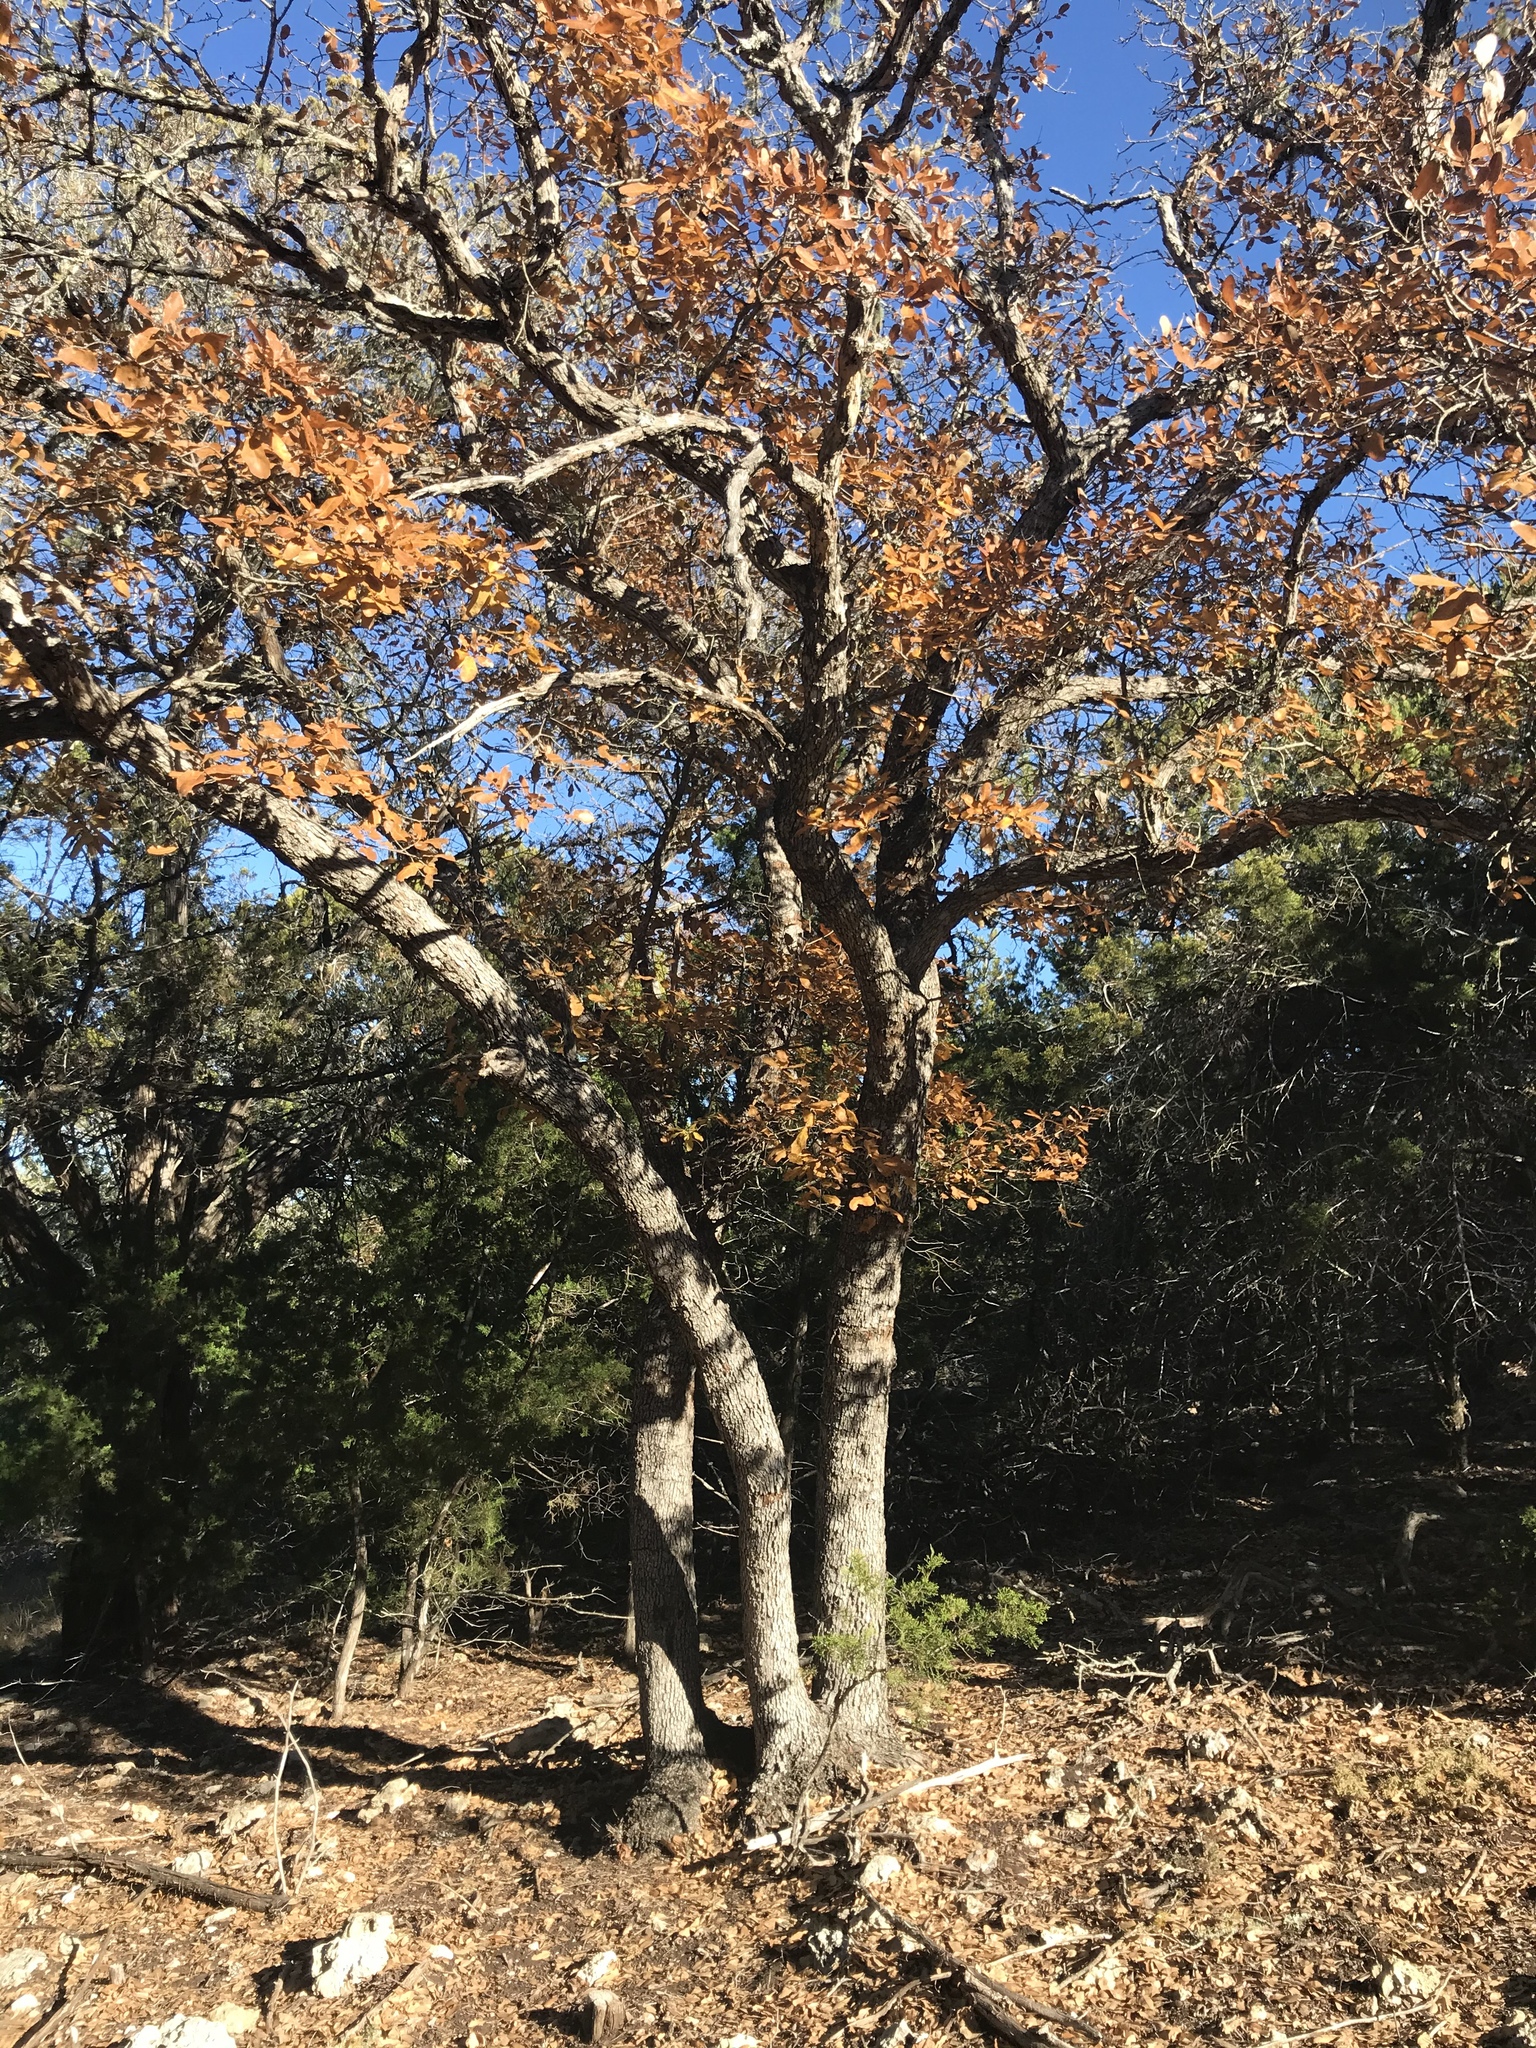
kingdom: Plantae
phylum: Tracheophyta
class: Magnoliopsida
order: Fagales
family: Fagaceae
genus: Quercus
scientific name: Quercus laceyi
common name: Lacey oak
